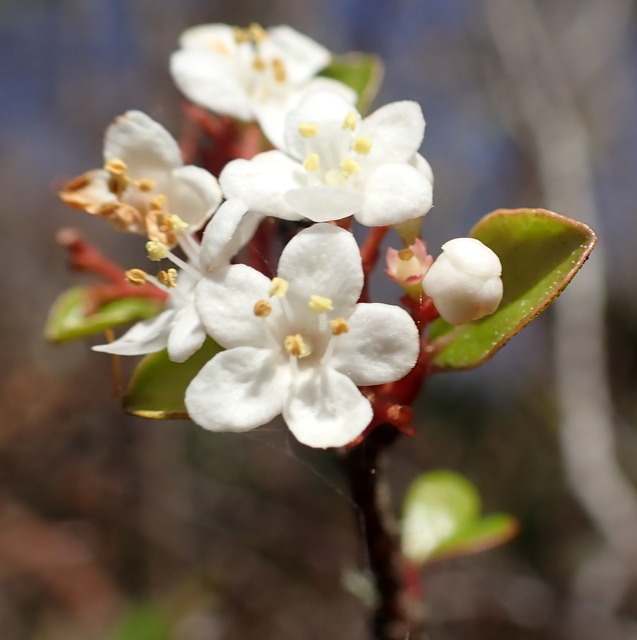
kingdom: Plantae
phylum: Tracheophyta
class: Magnoliopsida
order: Dipsacales
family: Viburnaceae
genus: Viburnum
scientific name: Viburnum obovatum
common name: Walter's viburnum
